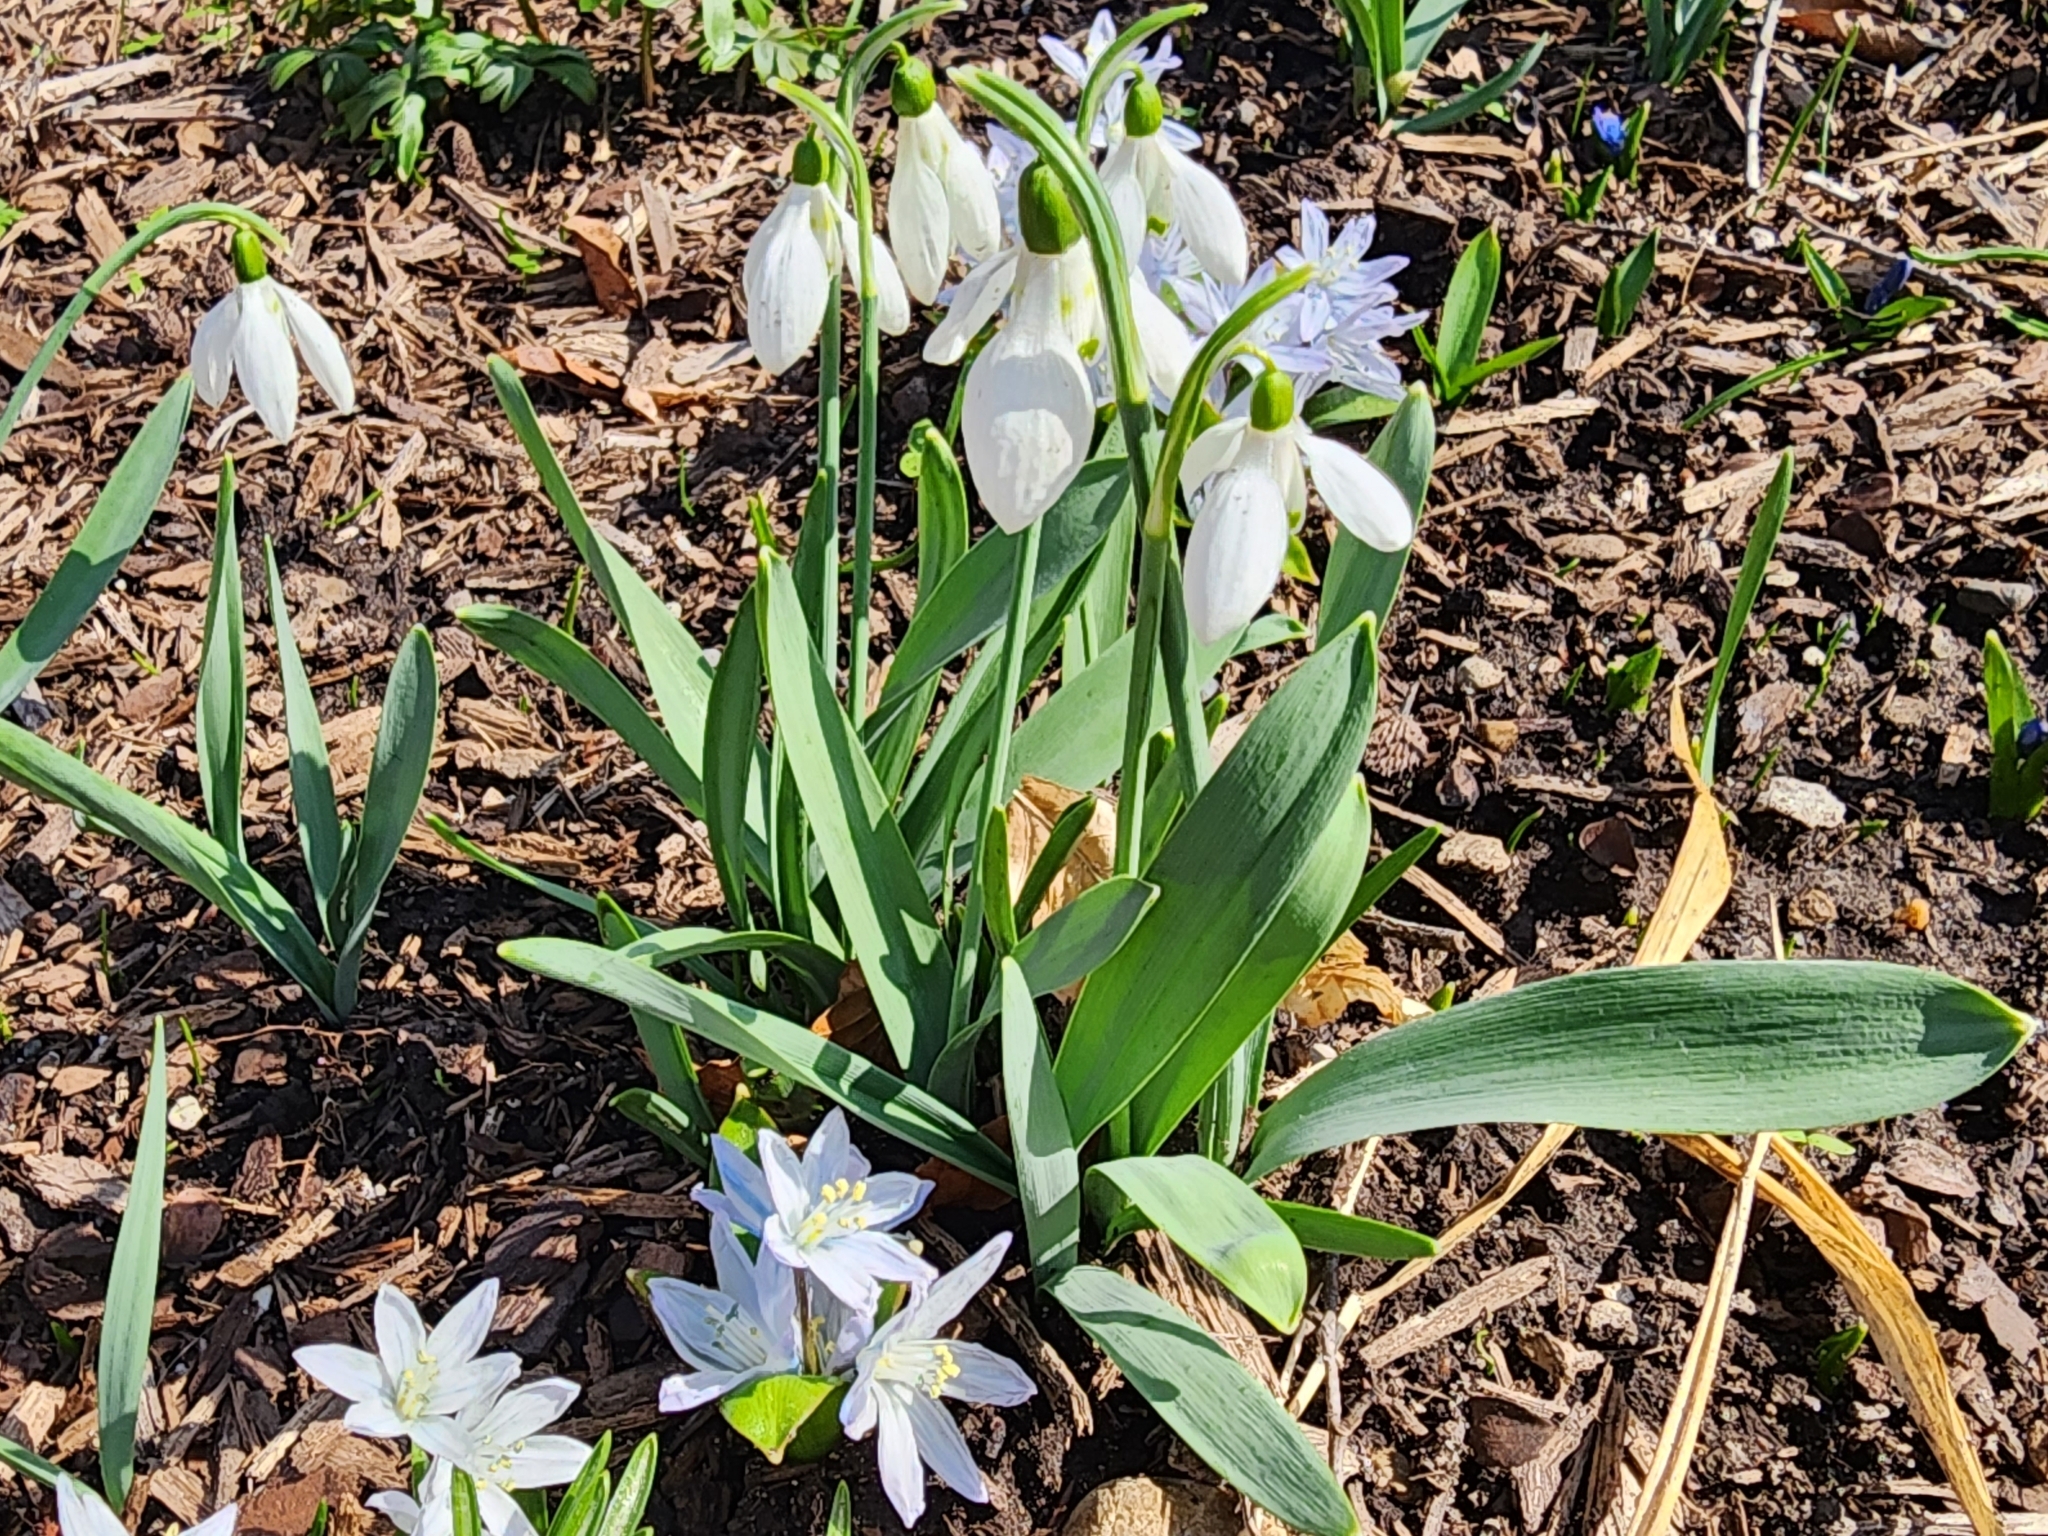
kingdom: Plantae
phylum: Tracheophyta
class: Liliopsida
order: Asparagales
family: Amaryllidaceae
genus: Galanthus
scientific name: Galanthus elwesii
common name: Greater snowdrop
